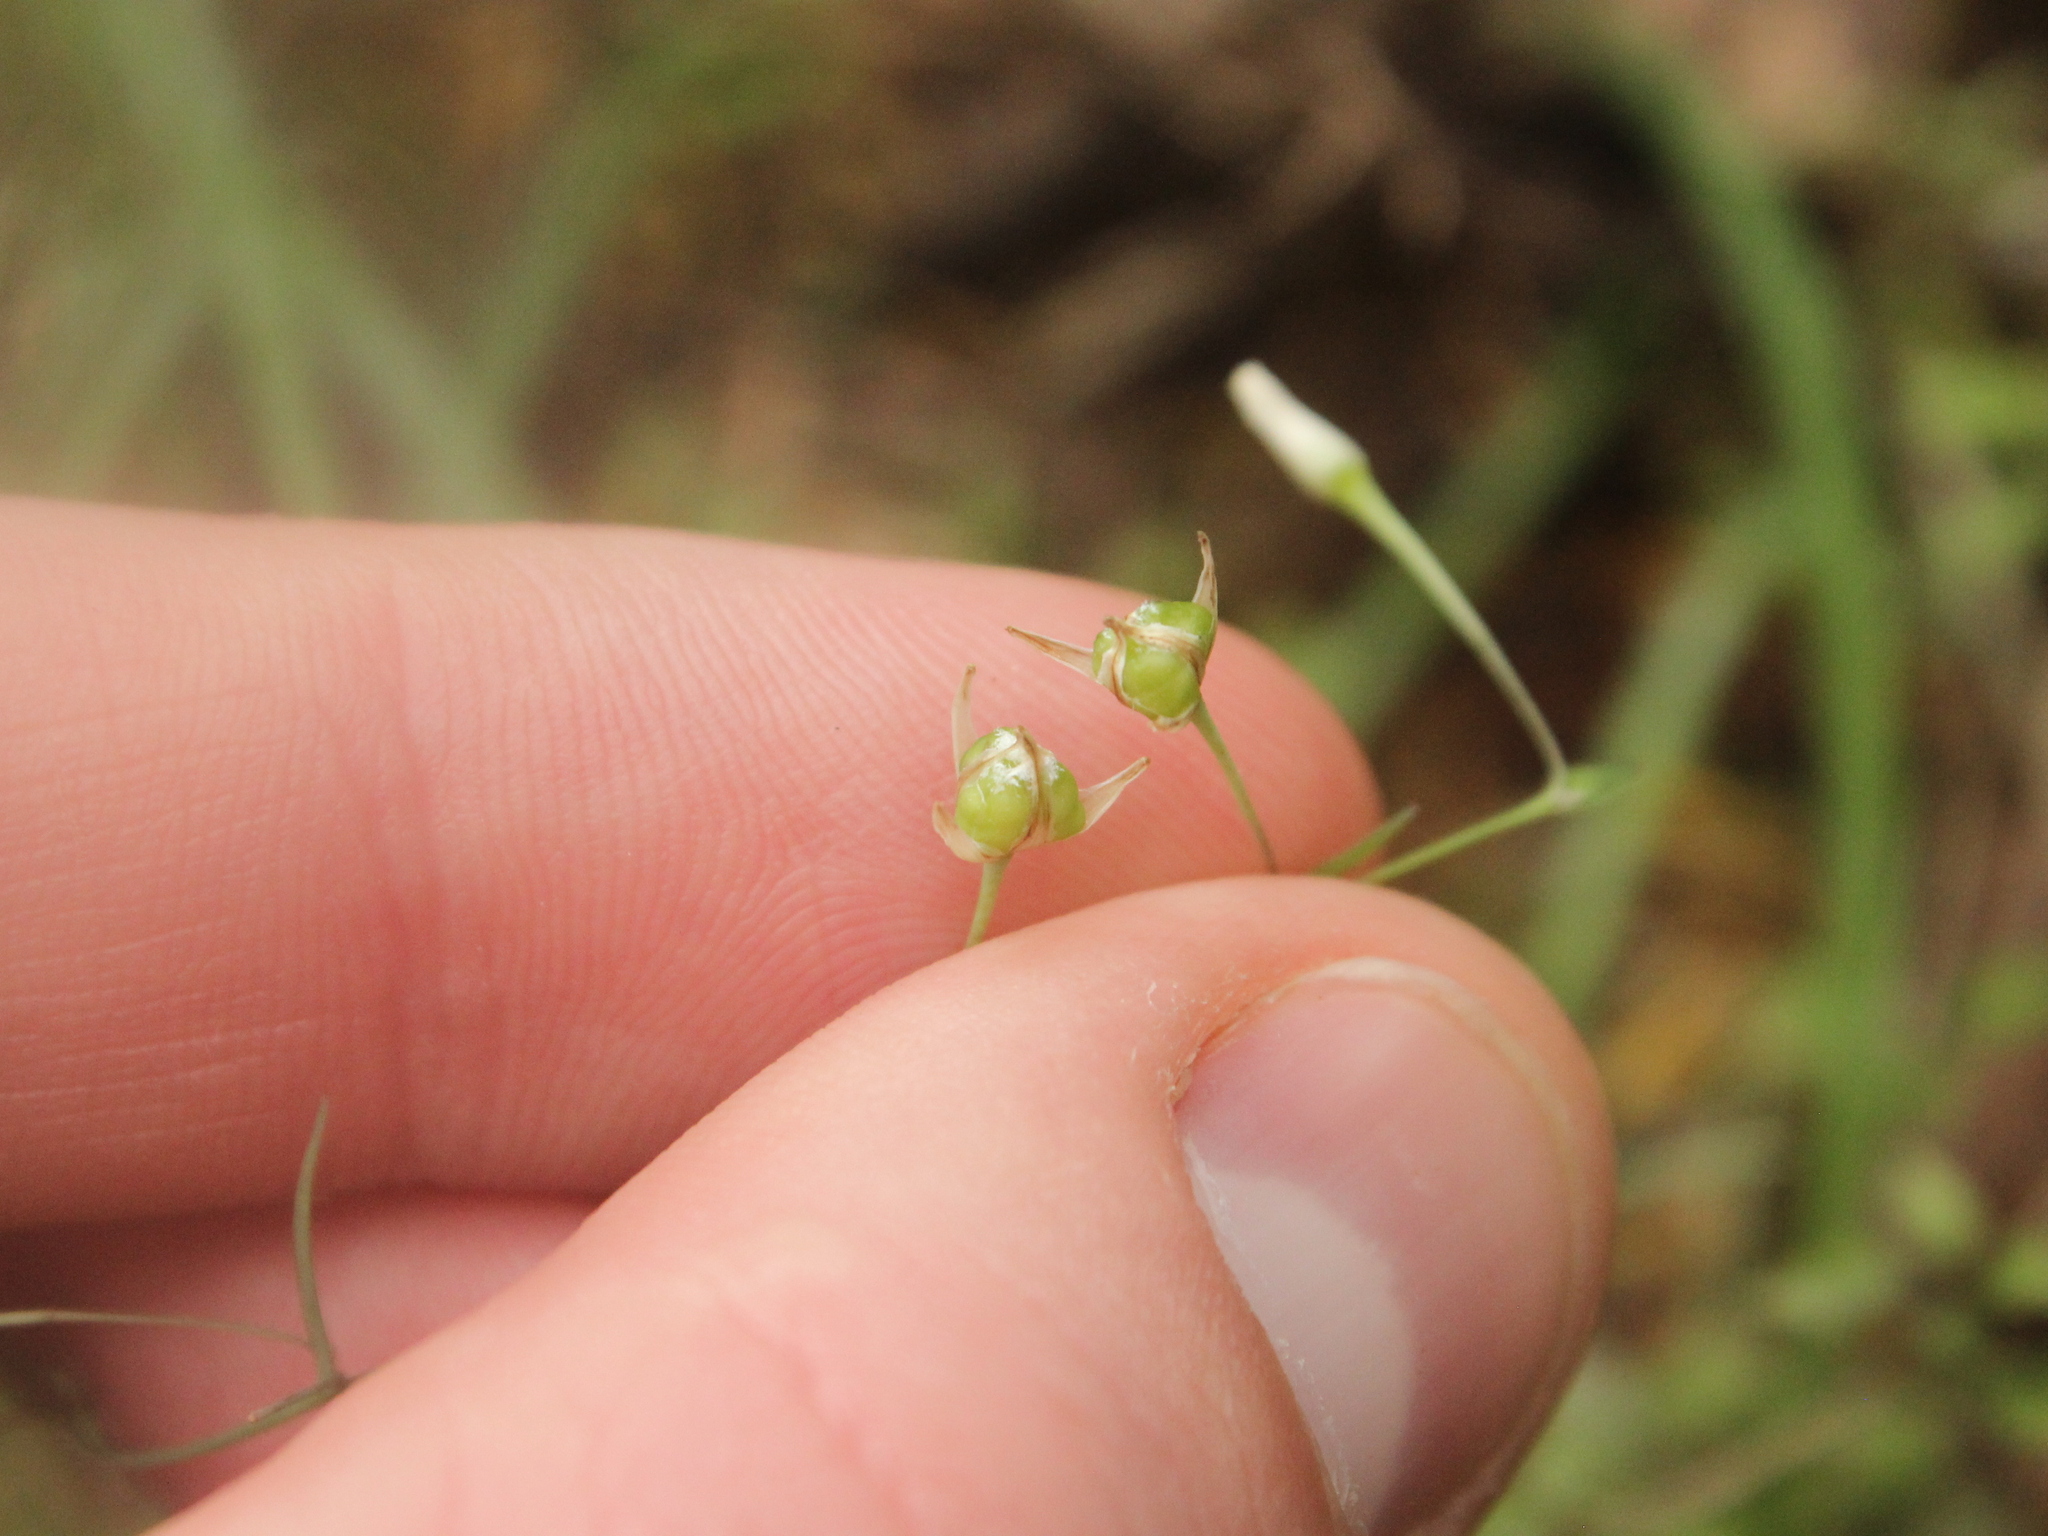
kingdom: Plantae
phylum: Tracheophyta
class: Liliopsida
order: Asparagales
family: Asparagaceae
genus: Arthropodium
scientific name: Arthropodium candidum
